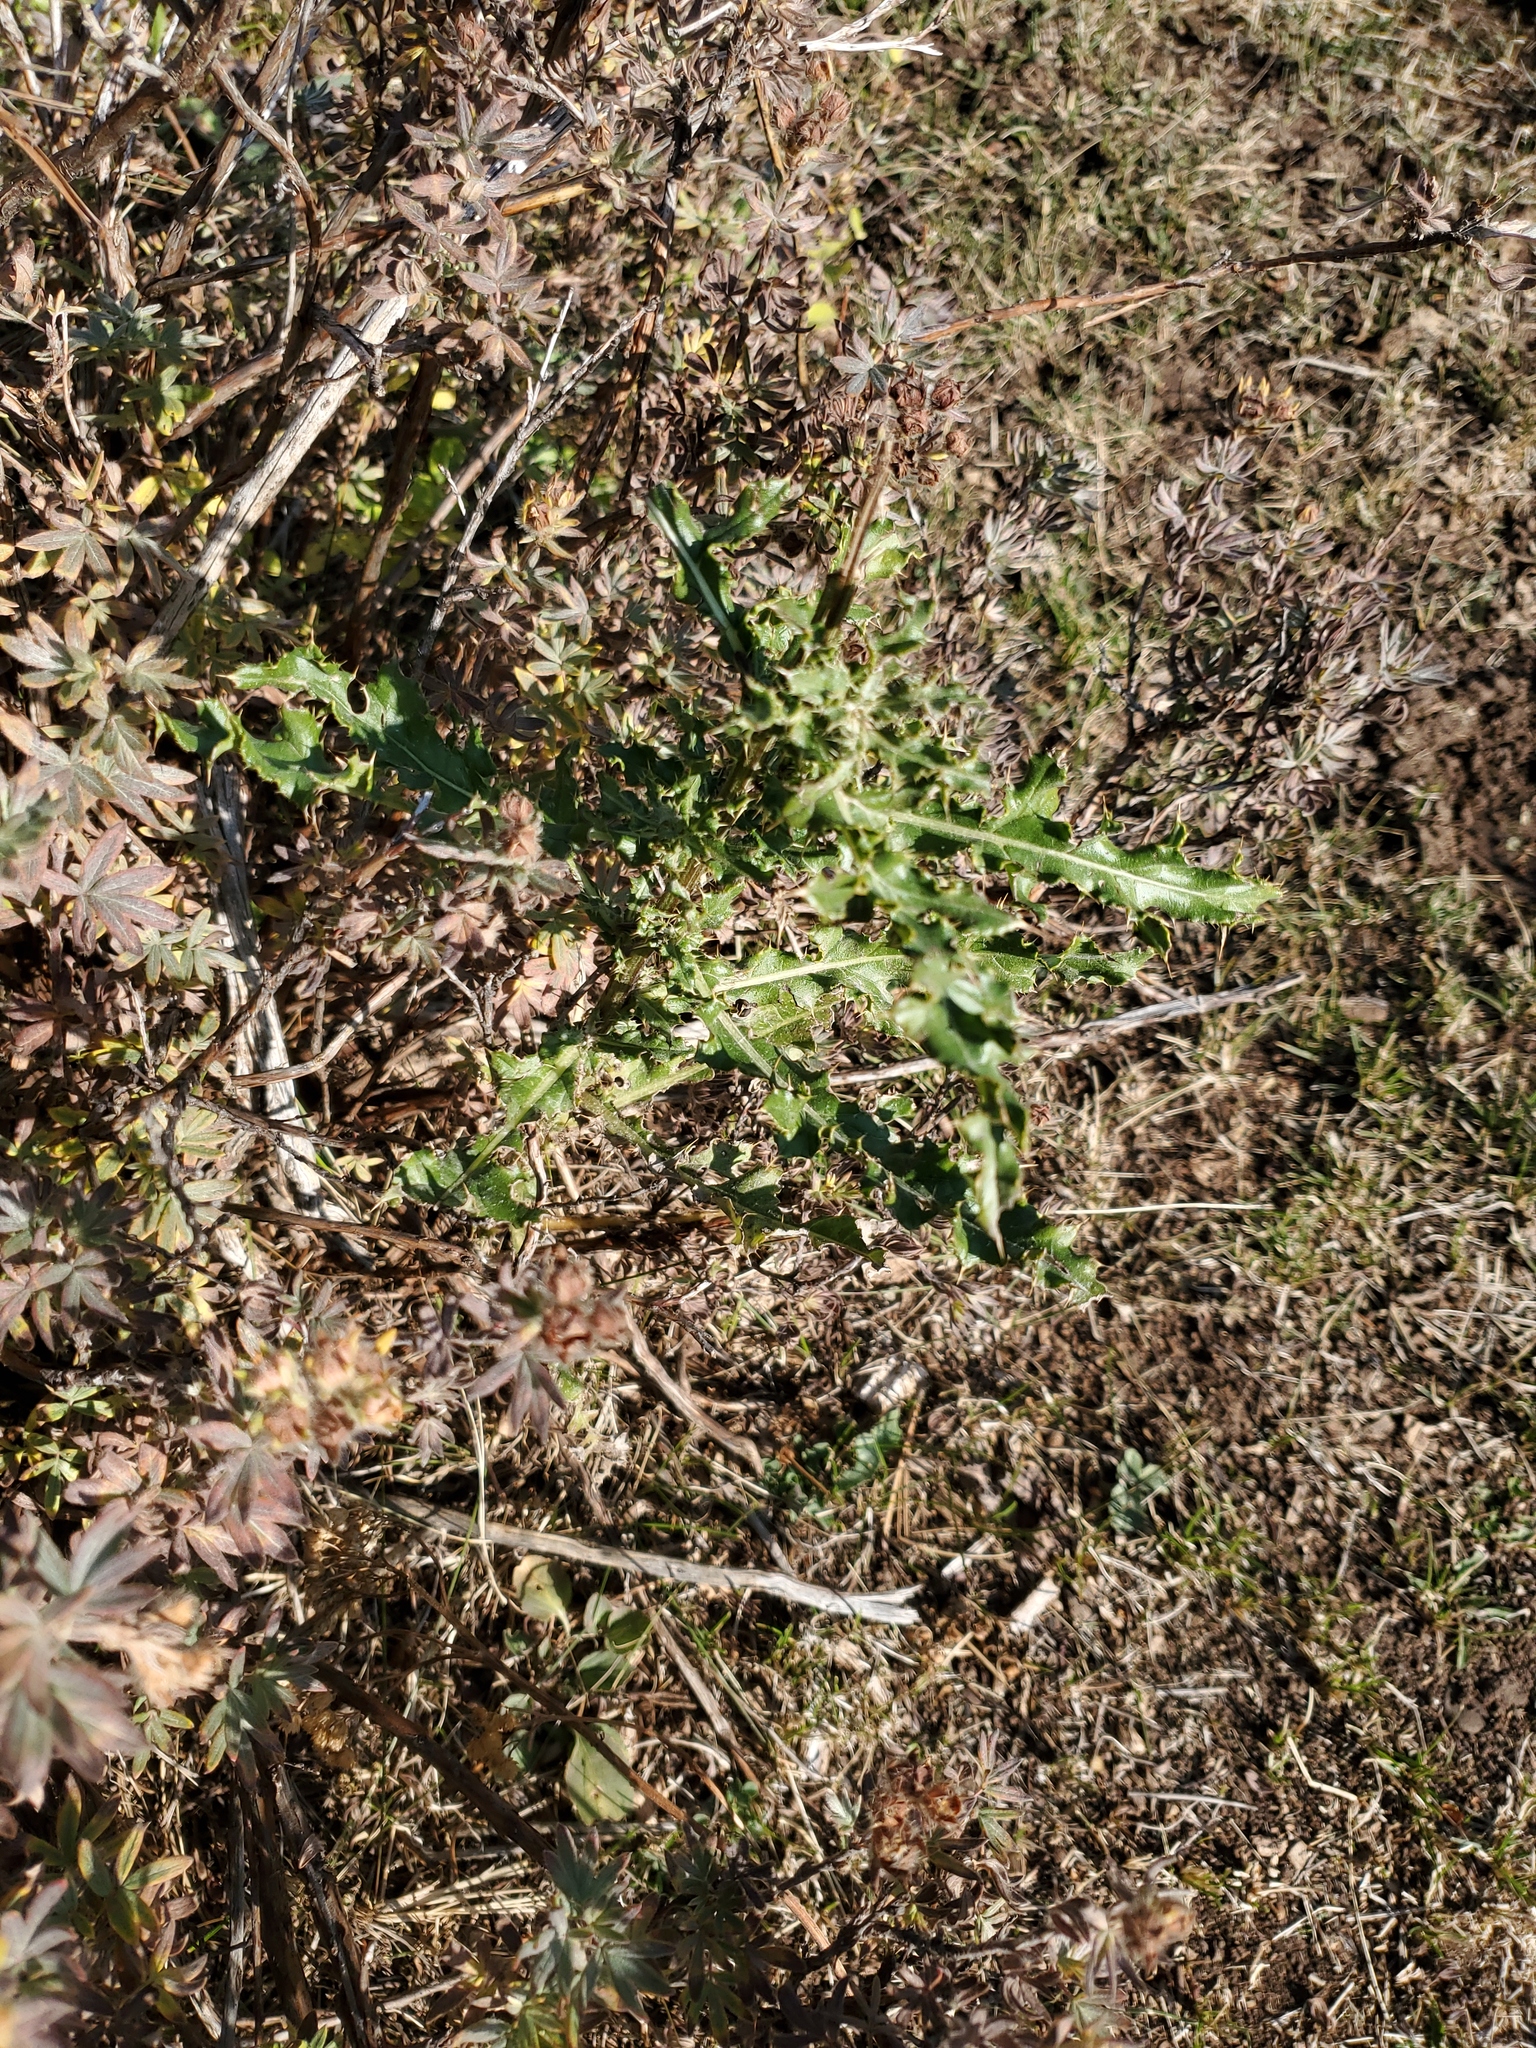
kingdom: Plantae
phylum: Tracheophyta
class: Magnoliopsida
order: Asterales
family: Asteraceae
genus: Cirsium
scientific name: Cirsium arvense
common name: Creeping thistle
